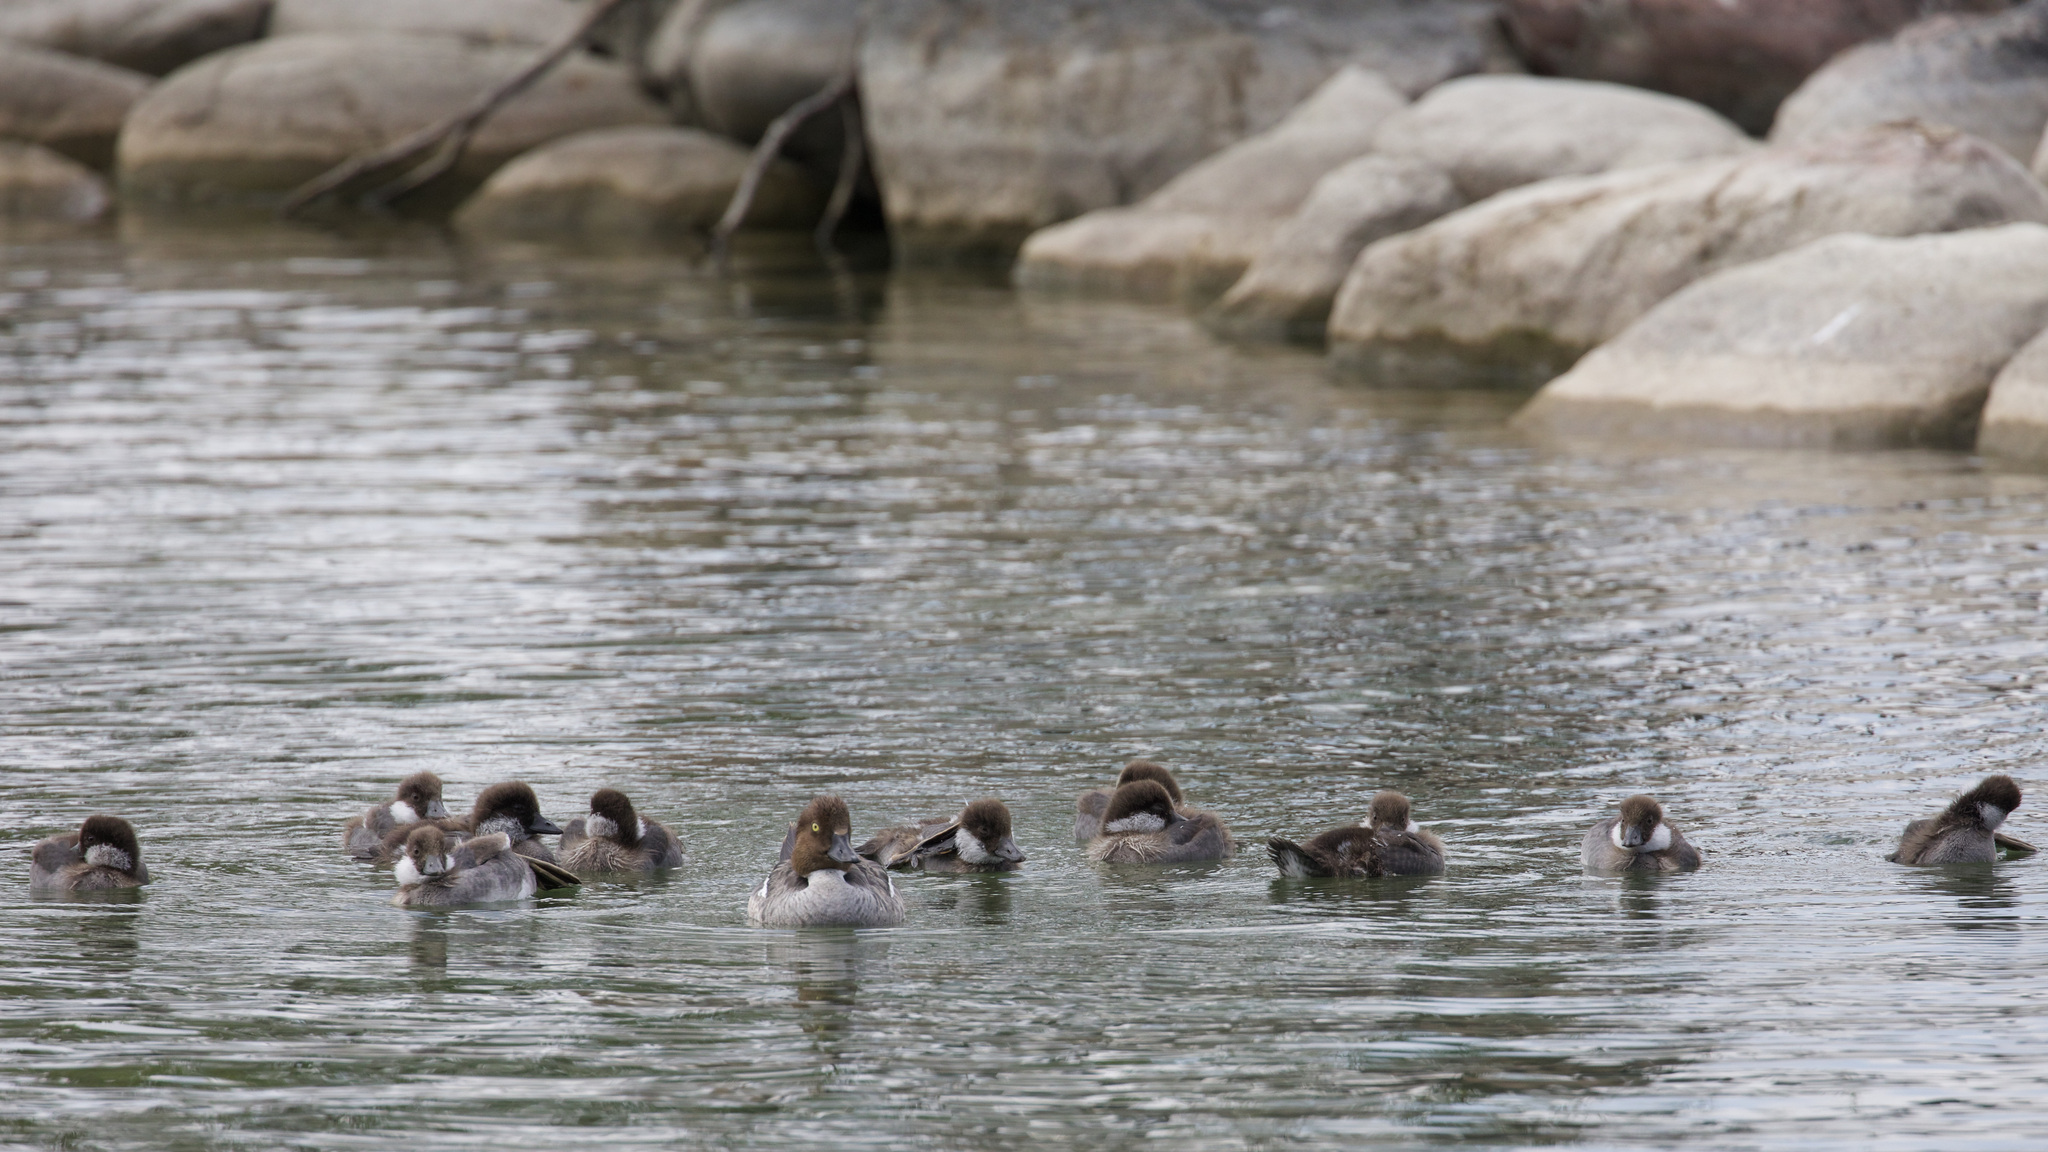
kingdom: Animalia
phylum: Chordata
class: Aves
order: Anseriformes
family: Anatidae
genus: Bucephala
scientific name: Bucephala clangula
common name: Common goldeneye
